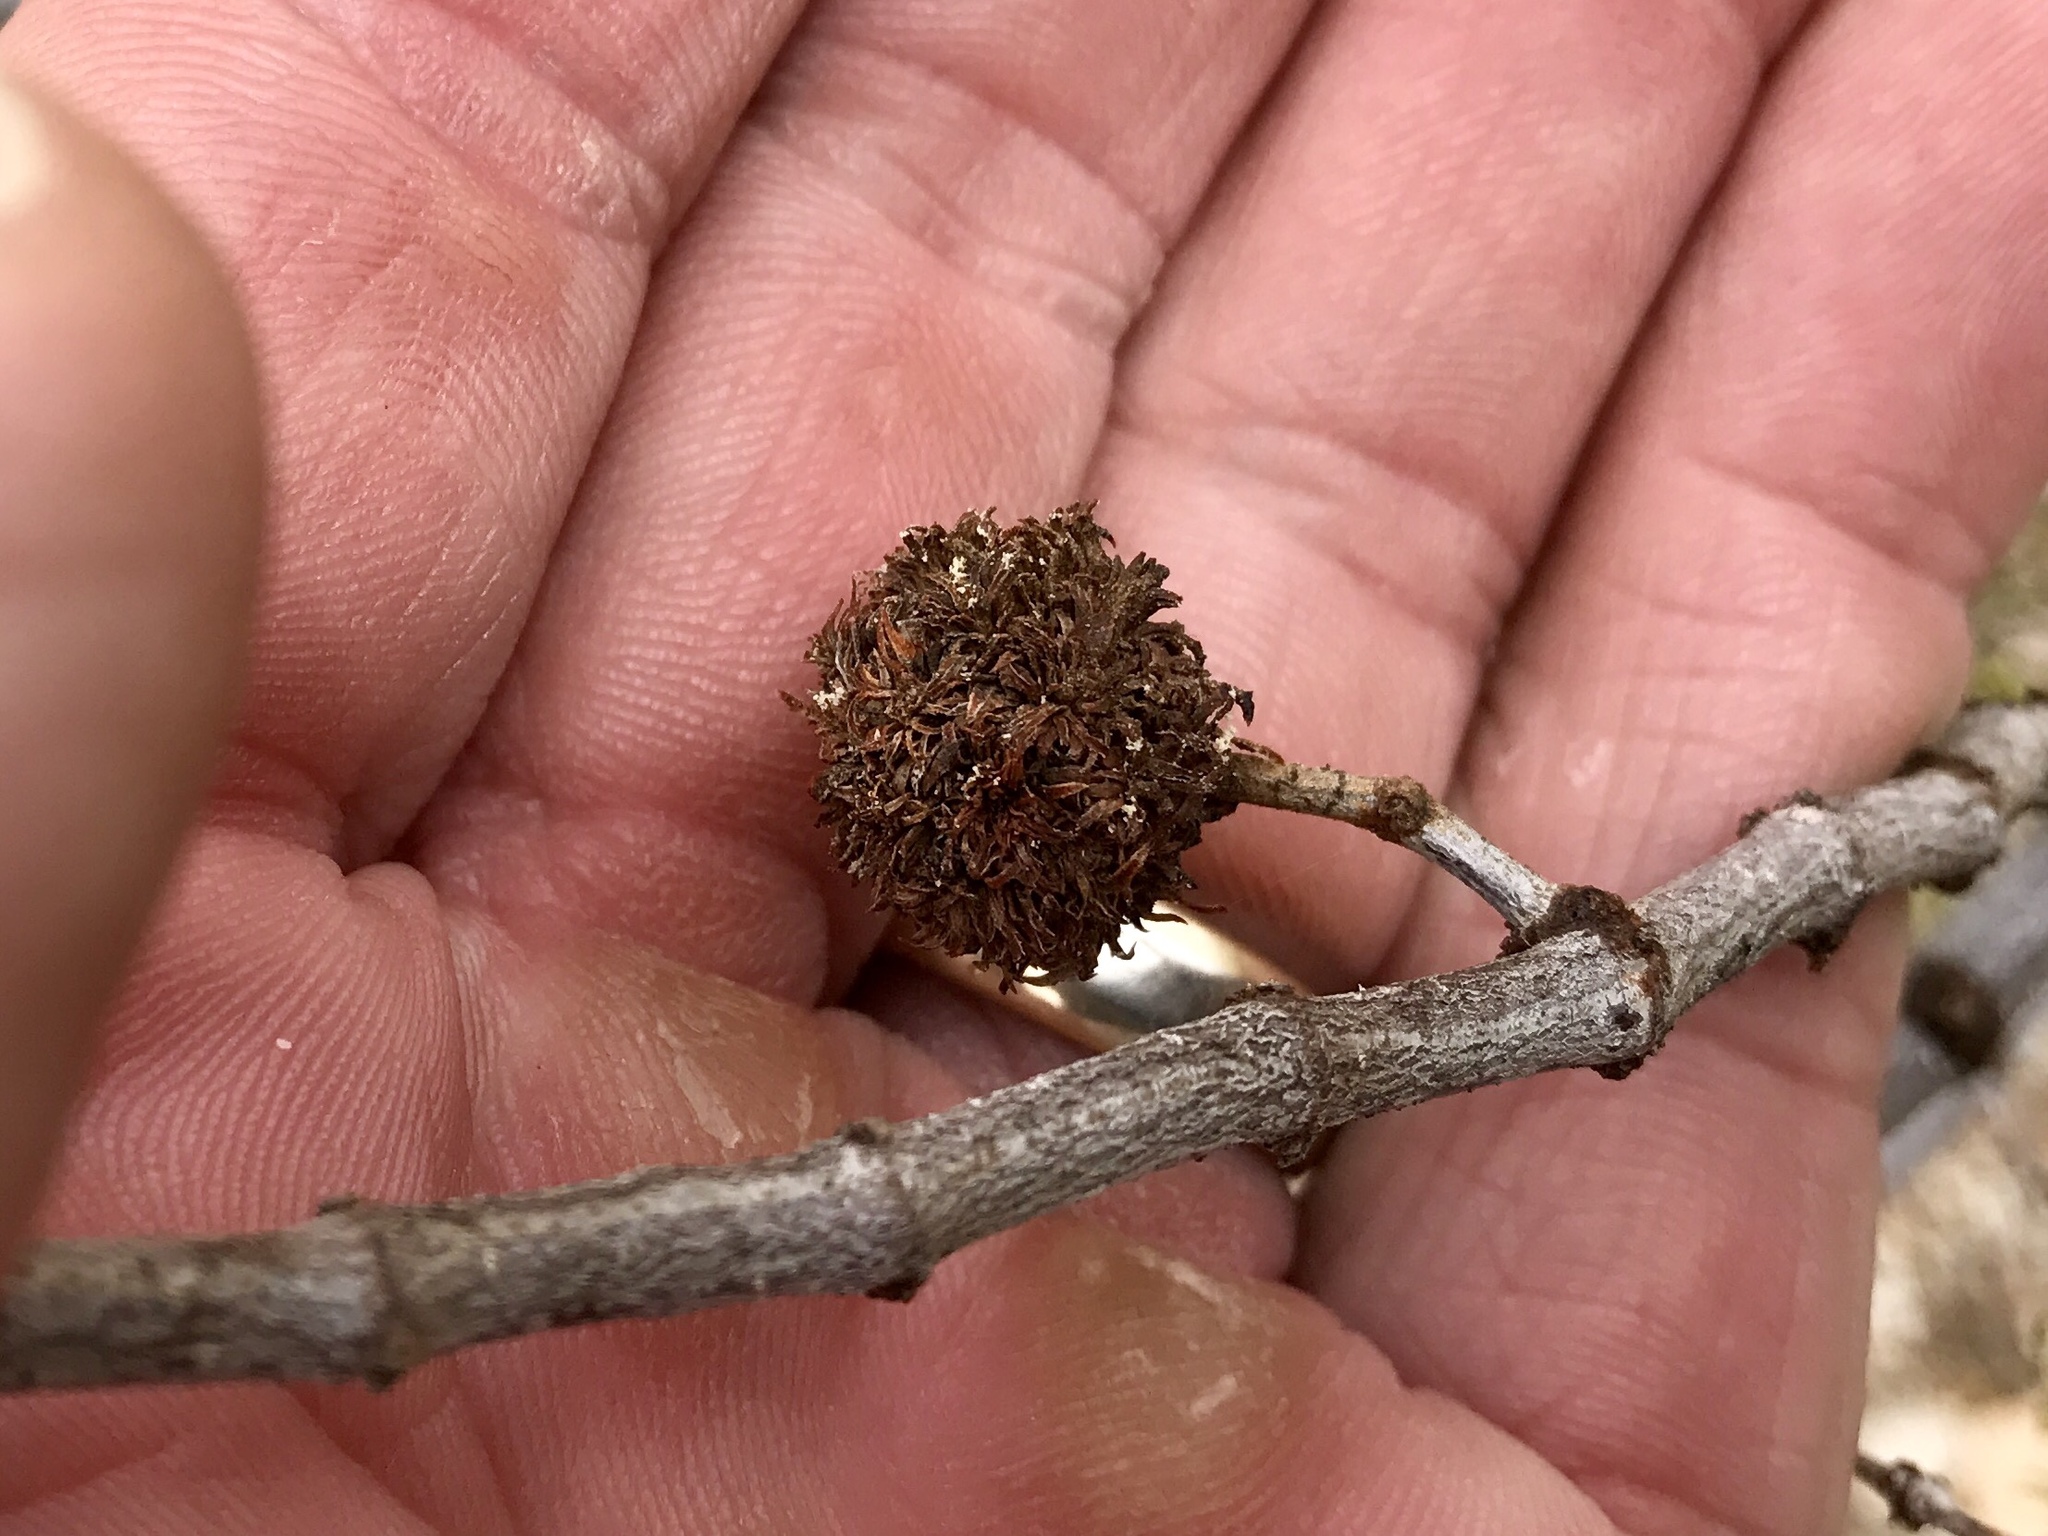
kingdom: Animalia
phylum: Arthropoda
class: Insecta
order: Diptera
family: Cecidomyiidae
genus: Asphondylia
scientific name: Asphondylia auripila
